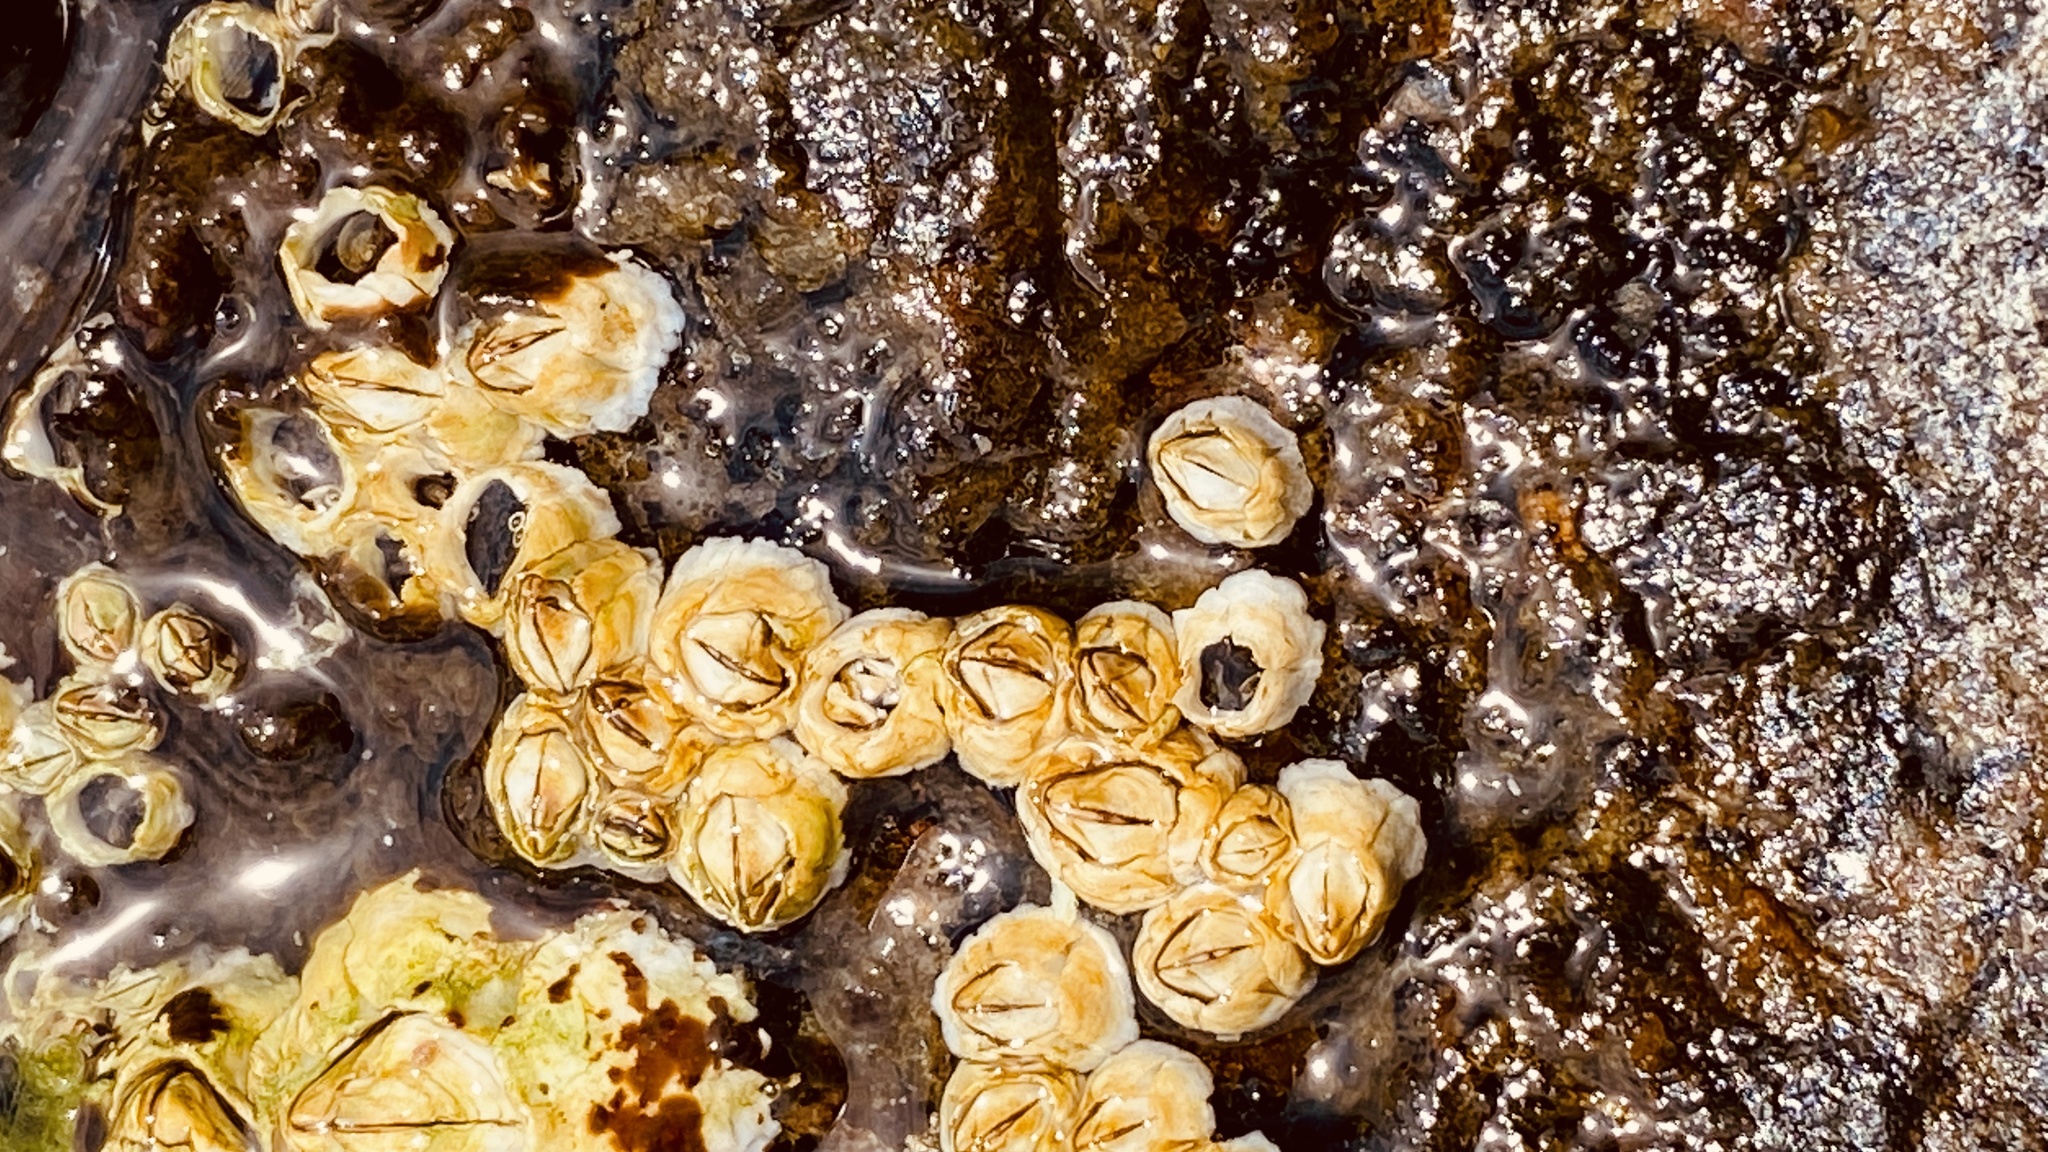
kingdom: Animalia
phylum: Arthropoda
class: Maxillopoda
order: Sessilia
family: Archaeobalanidae
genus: Semibalanus
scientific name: Semibalanus balanoides
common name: Acorn barnacle
